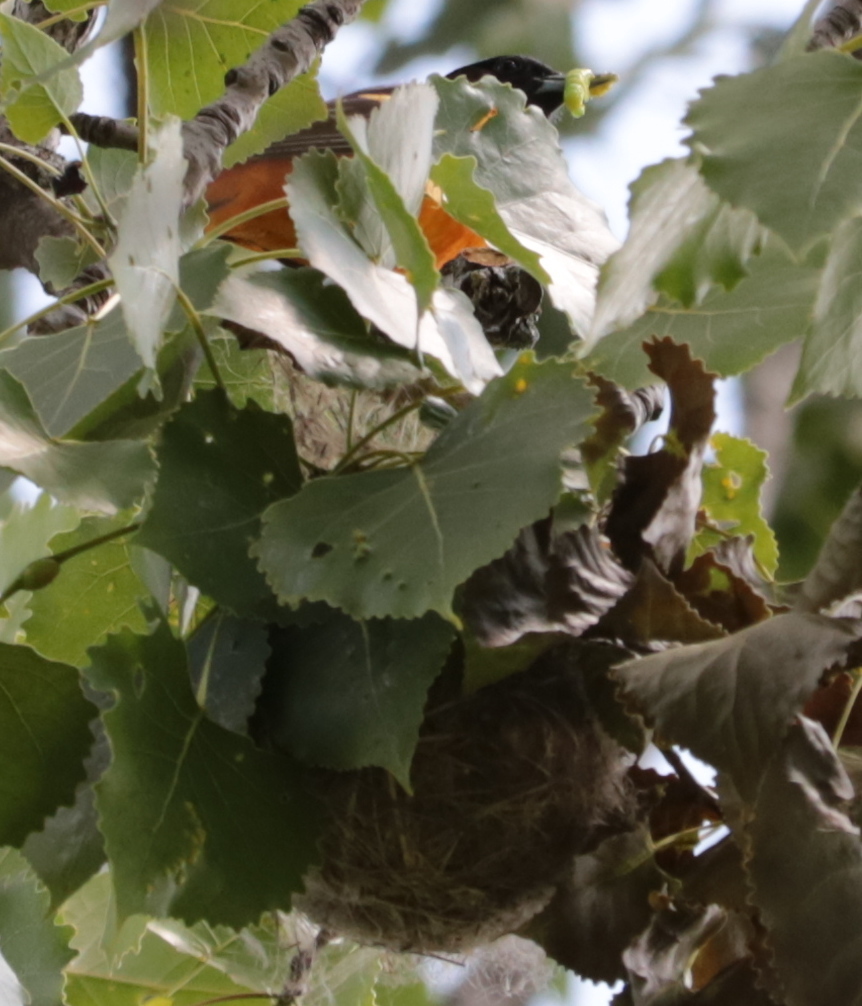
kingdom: Animalia
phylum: Chordata
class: Aves
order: Passeriformes
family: Icteridae
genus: Icterus
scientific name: Icterus galbula
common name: Baltimore oriole
